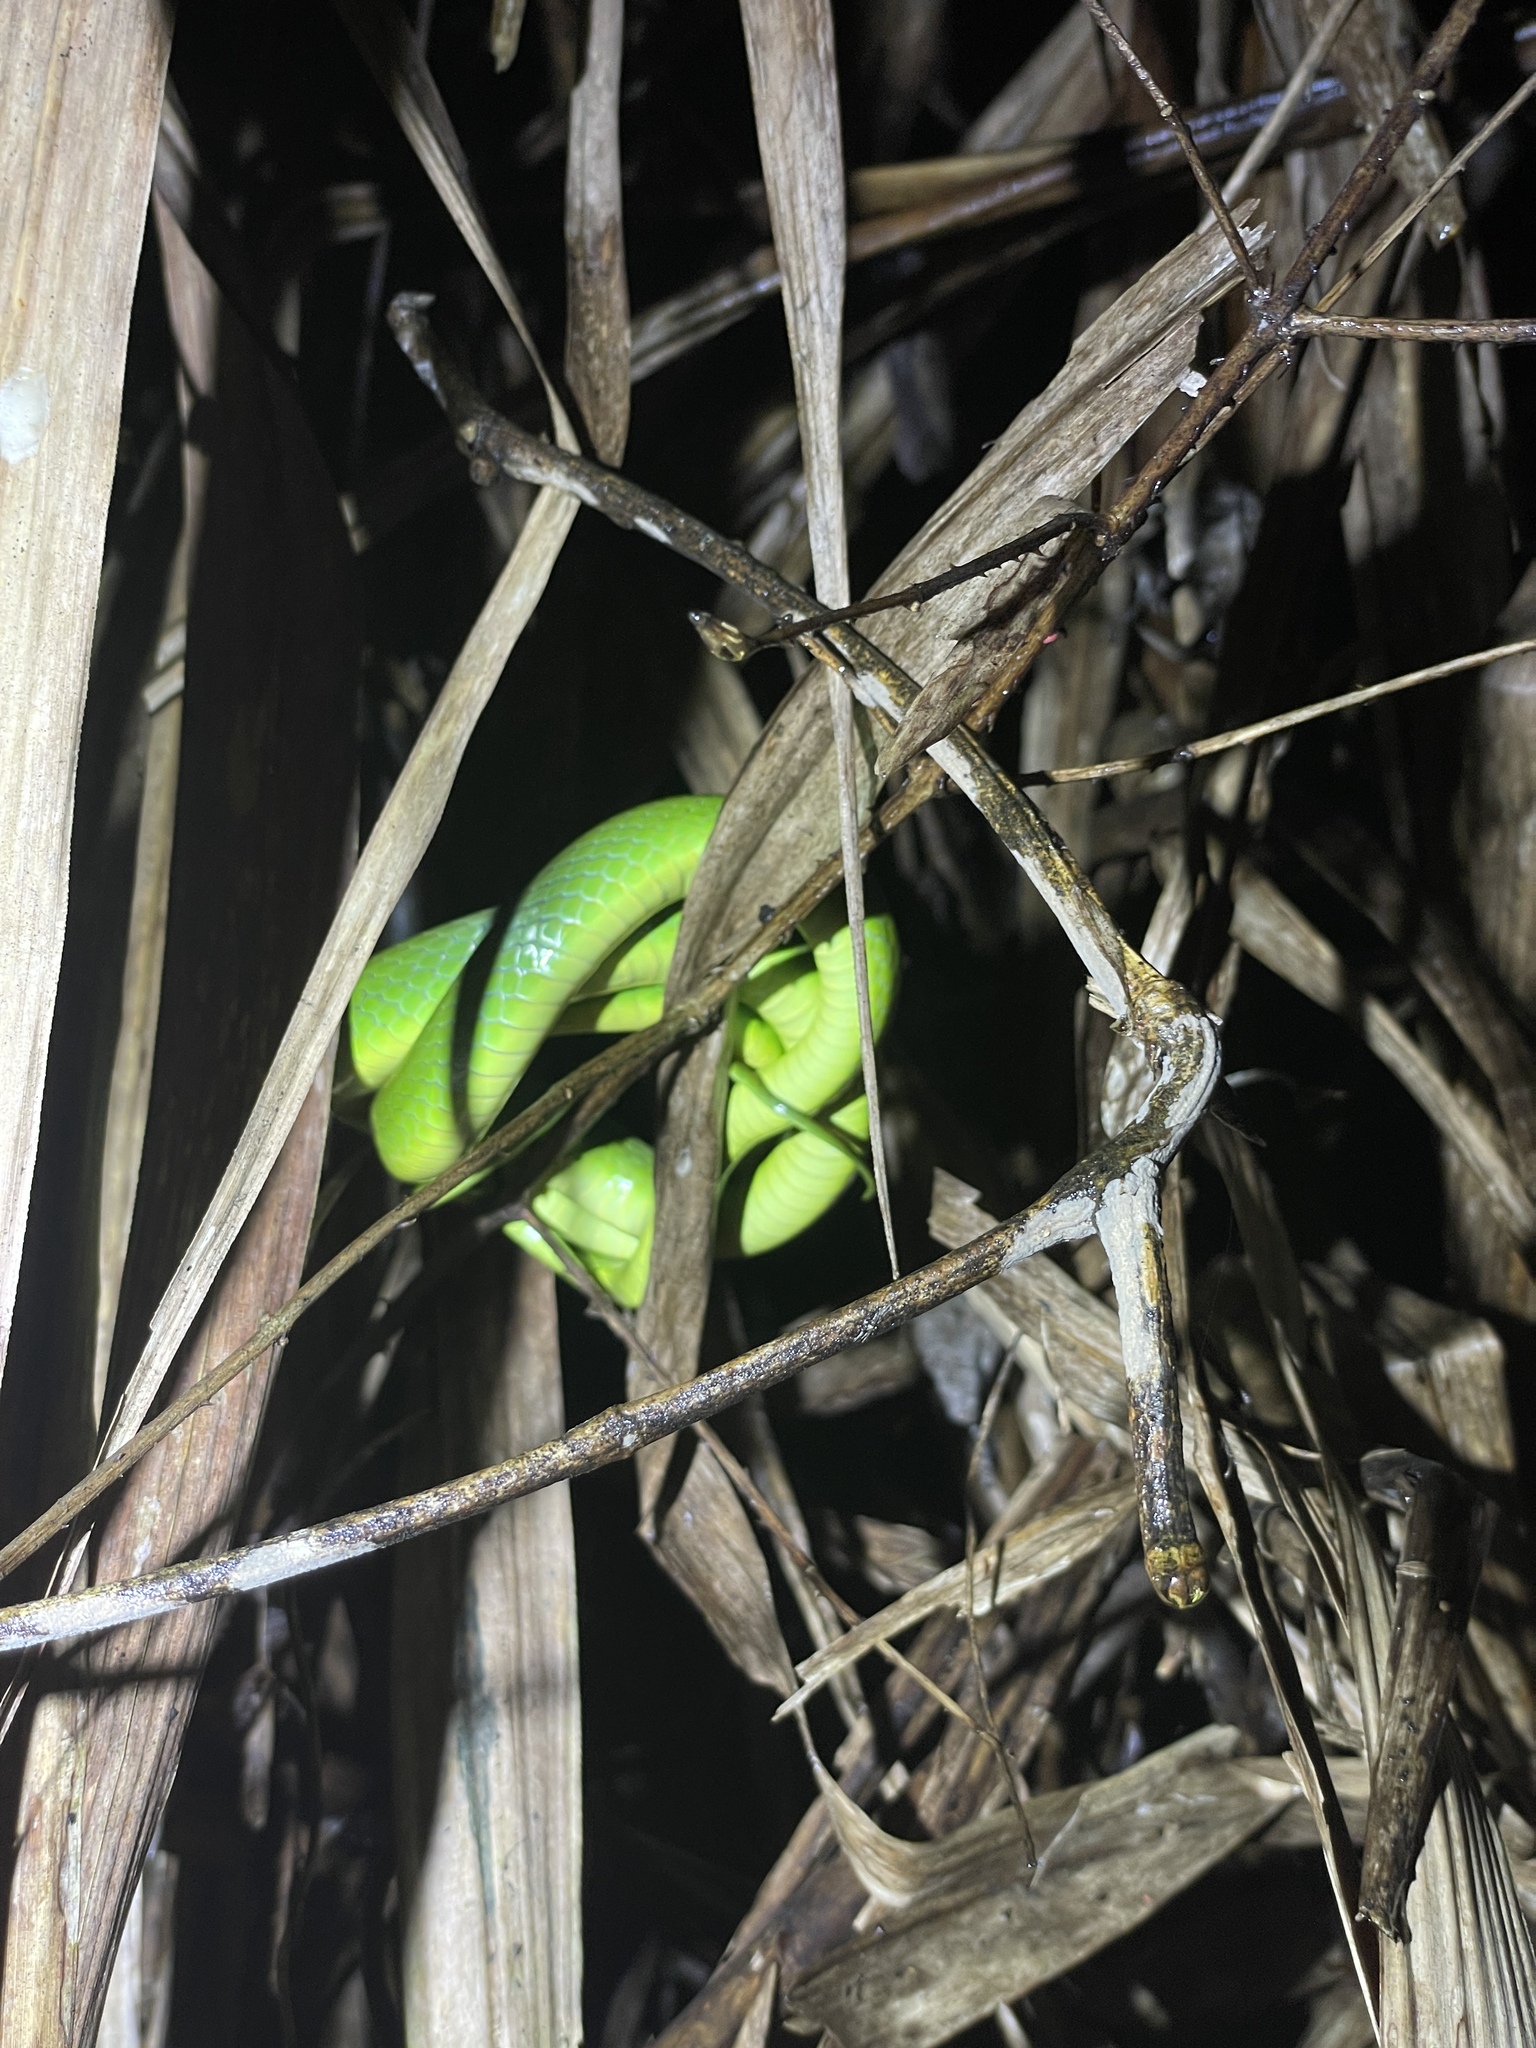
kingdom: Animalia
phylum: Chordata
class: Squamata
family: Colubridae
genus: Ptyas
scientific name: Ptyas major
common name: Chinese green snake
